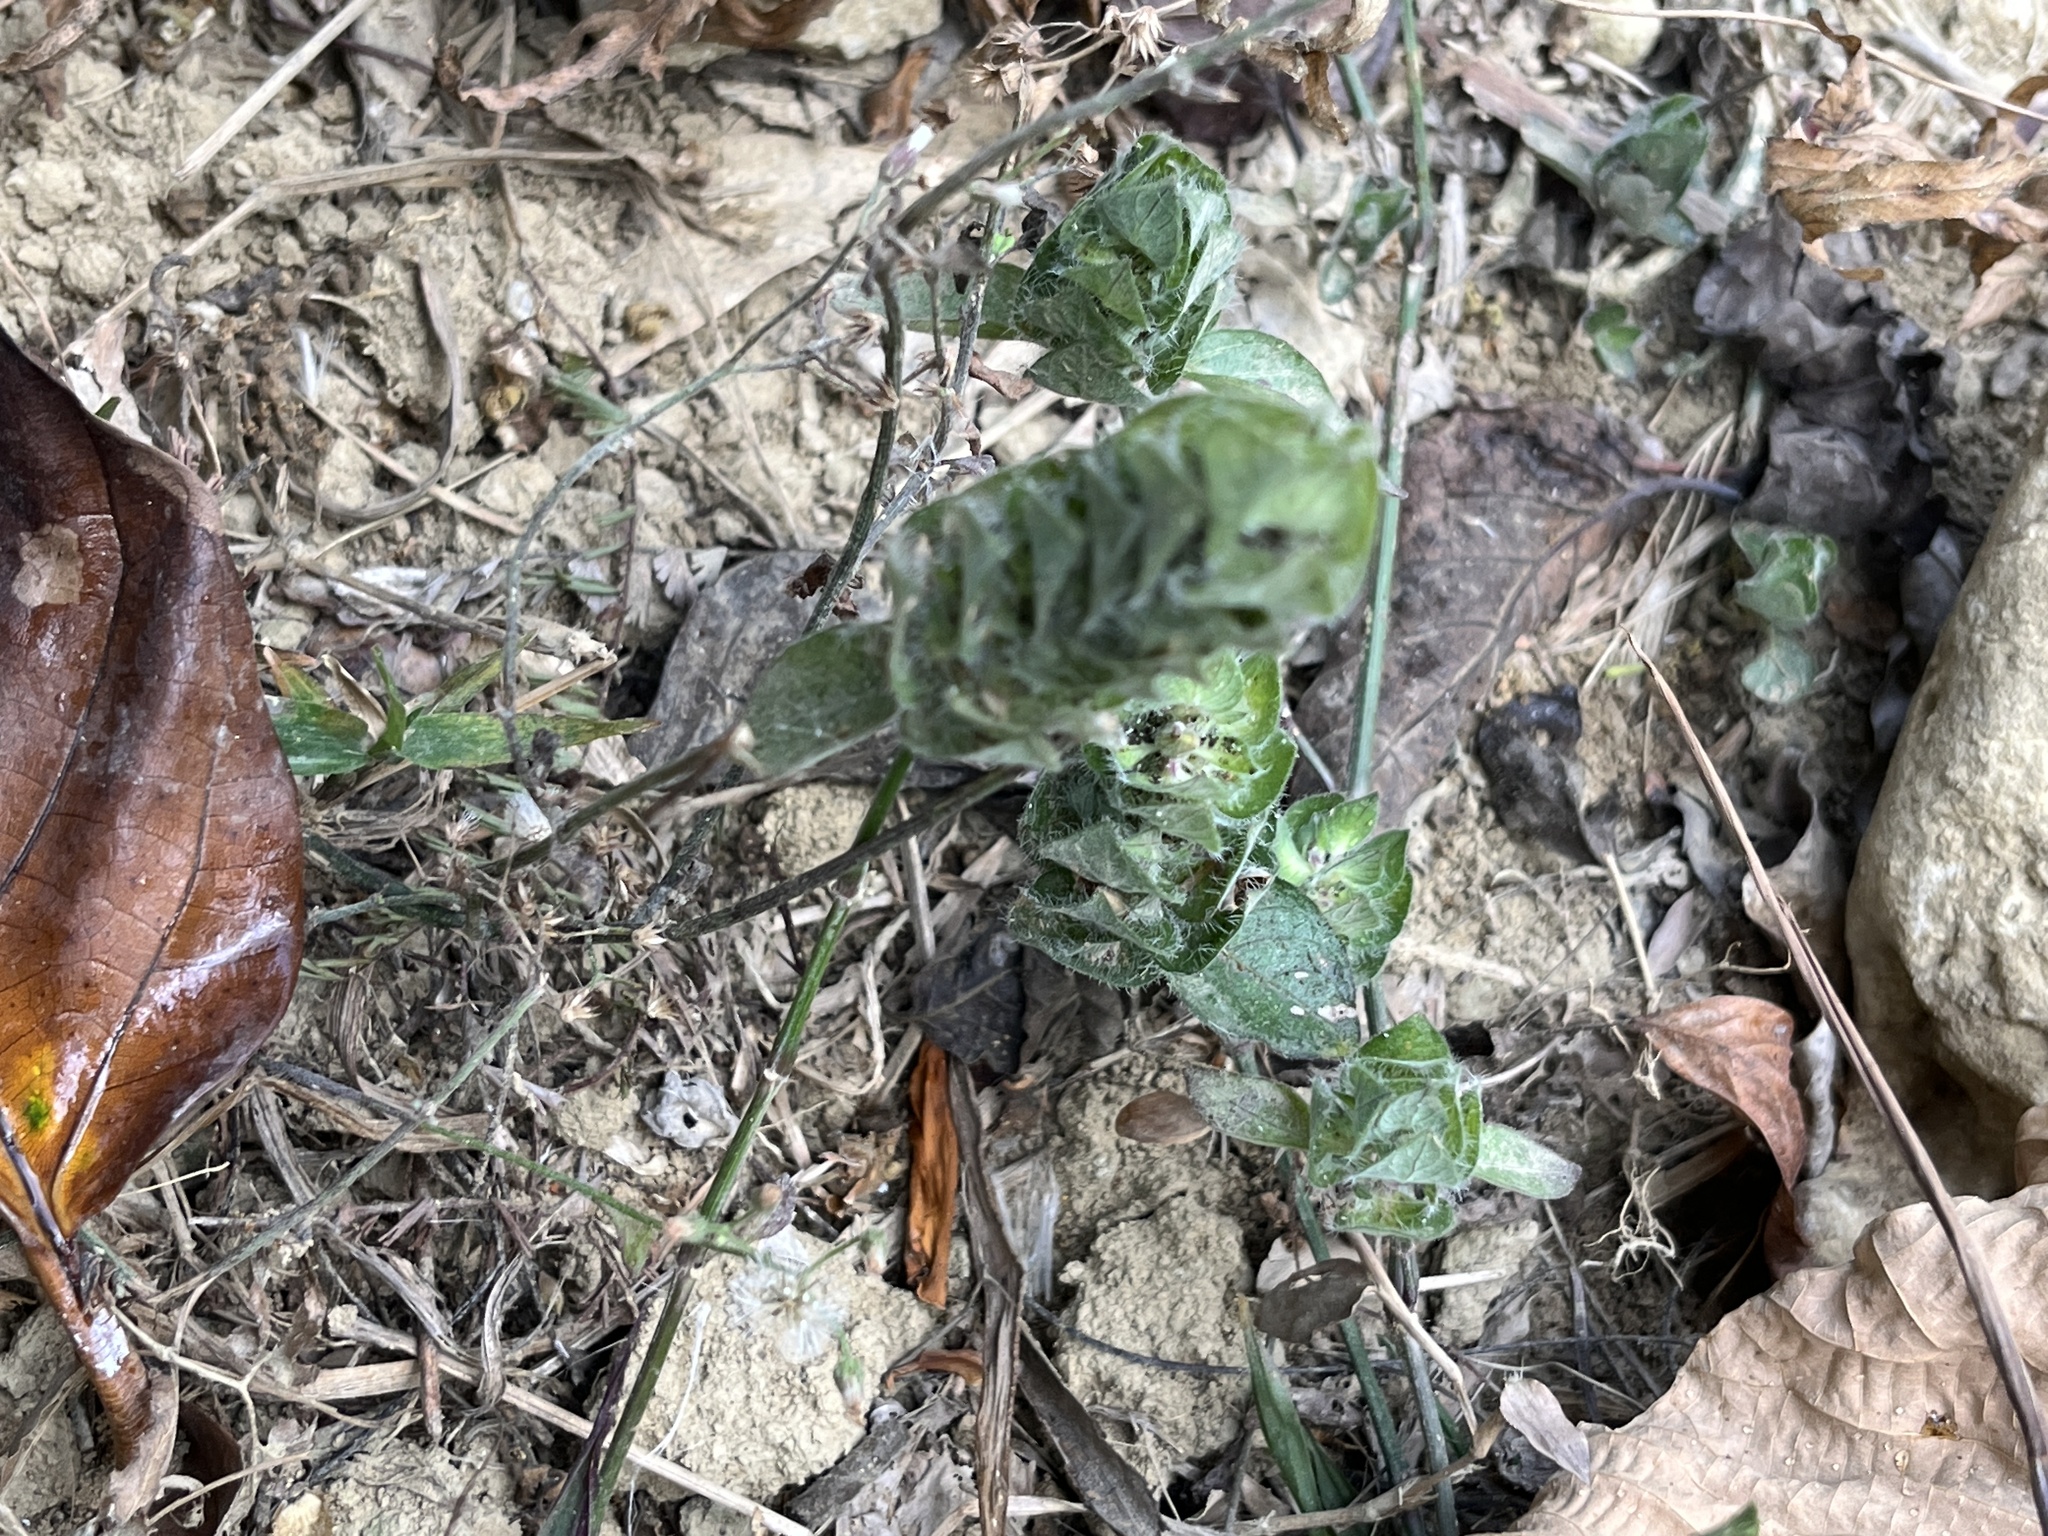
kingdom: Plantae
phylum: Tracheophyta
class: Magnoliopsida
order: Lamiales
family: Acanthaceae
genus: Ruellia
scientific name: Ruellia blechum
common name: Browne's blechum
